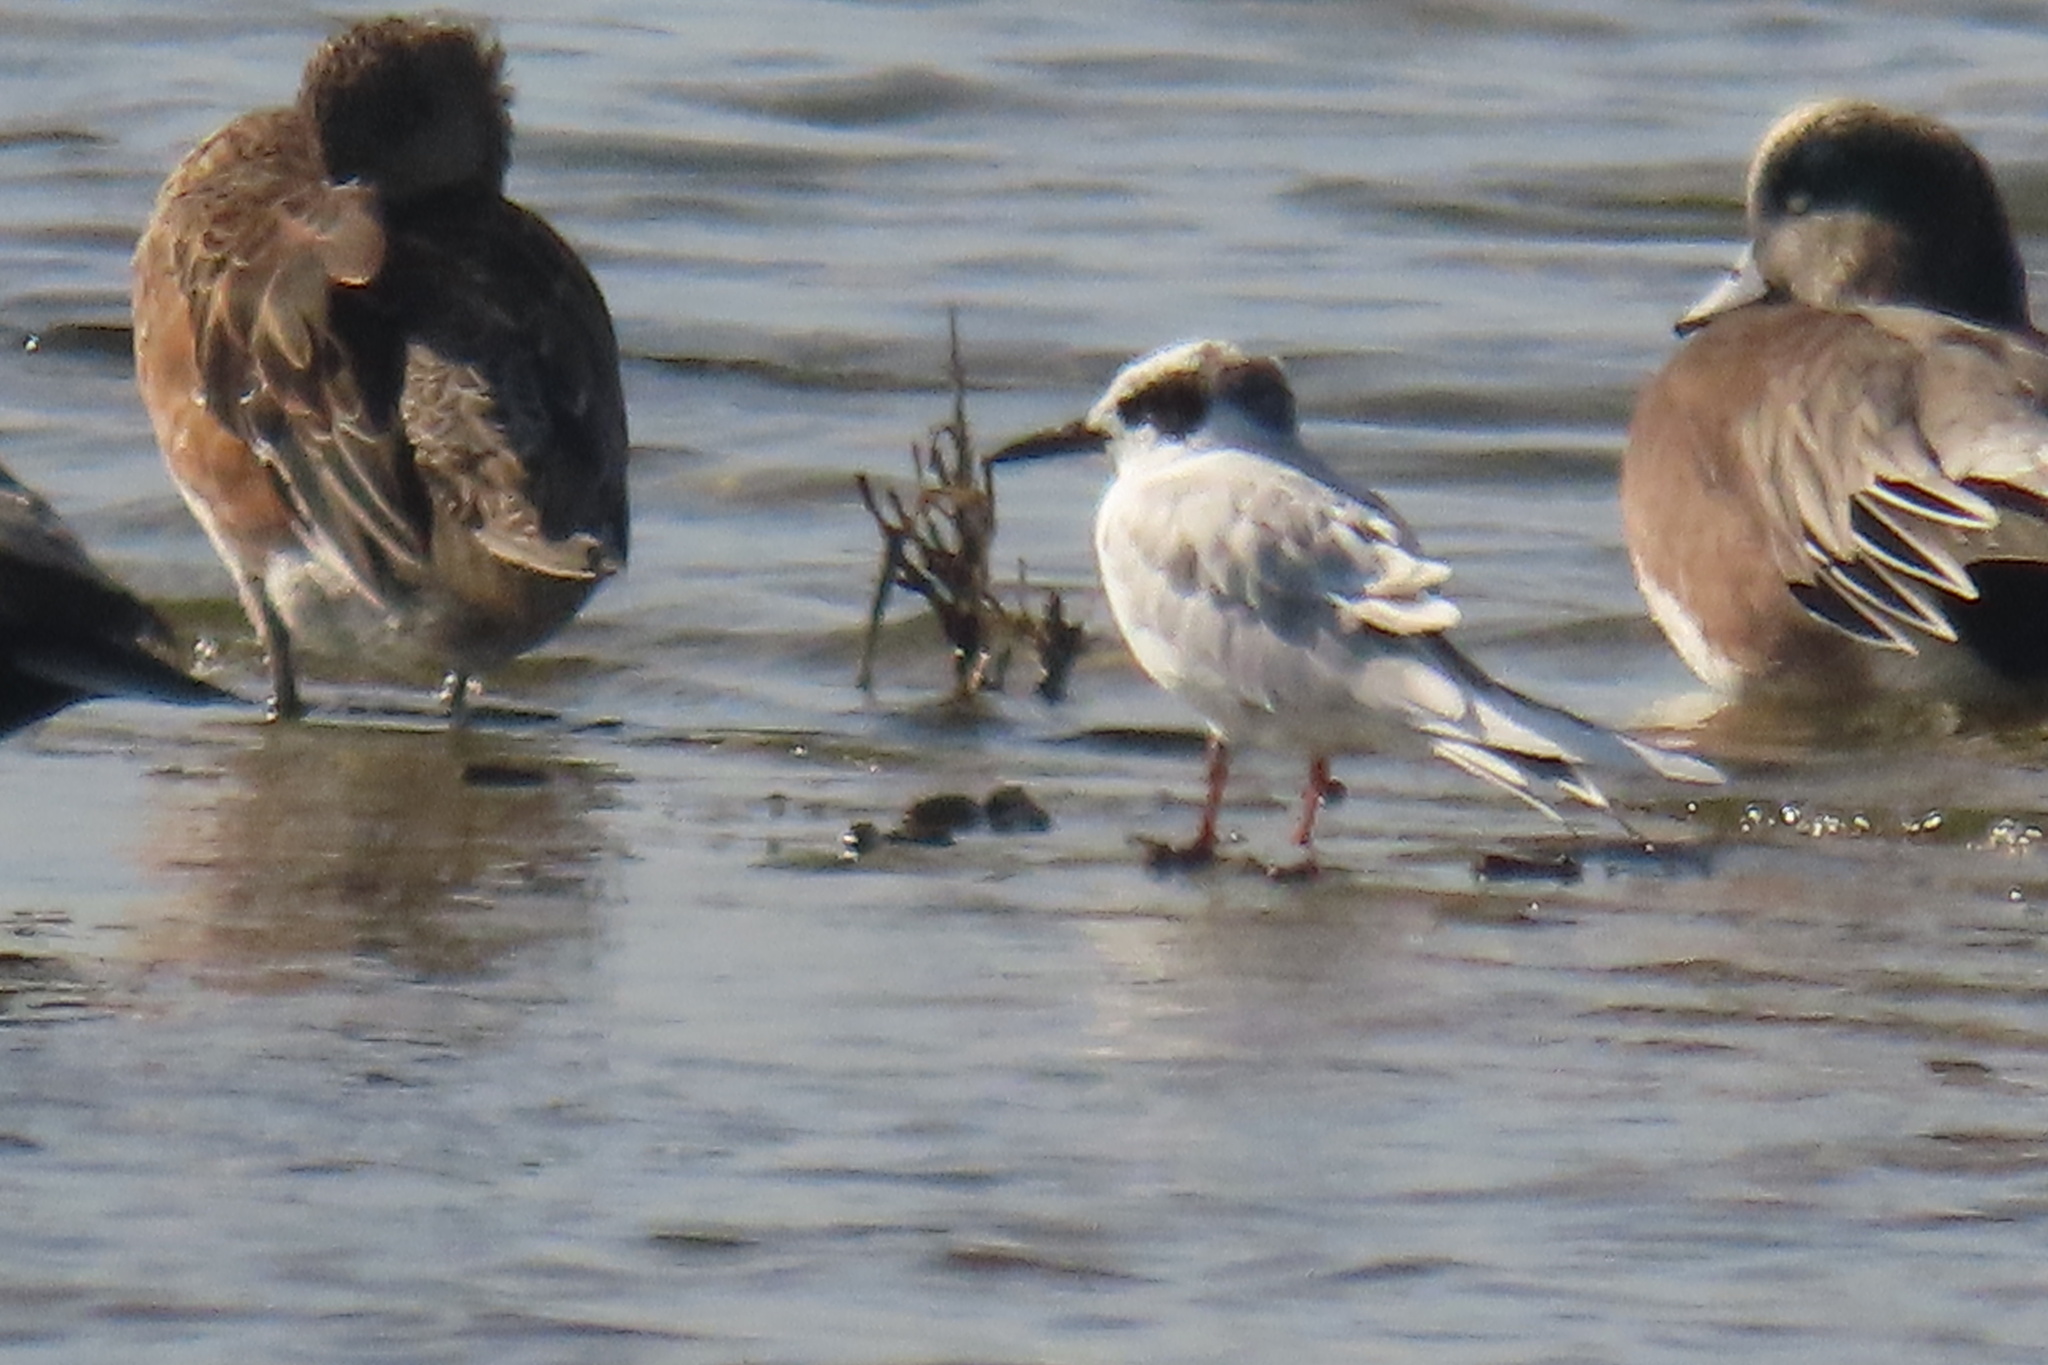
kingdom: Animalia
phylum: Chordata
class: Aves
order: Charadriiformes
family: Laridae
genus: Sterna
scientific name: Sterna forsteri
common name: Forster's tern
